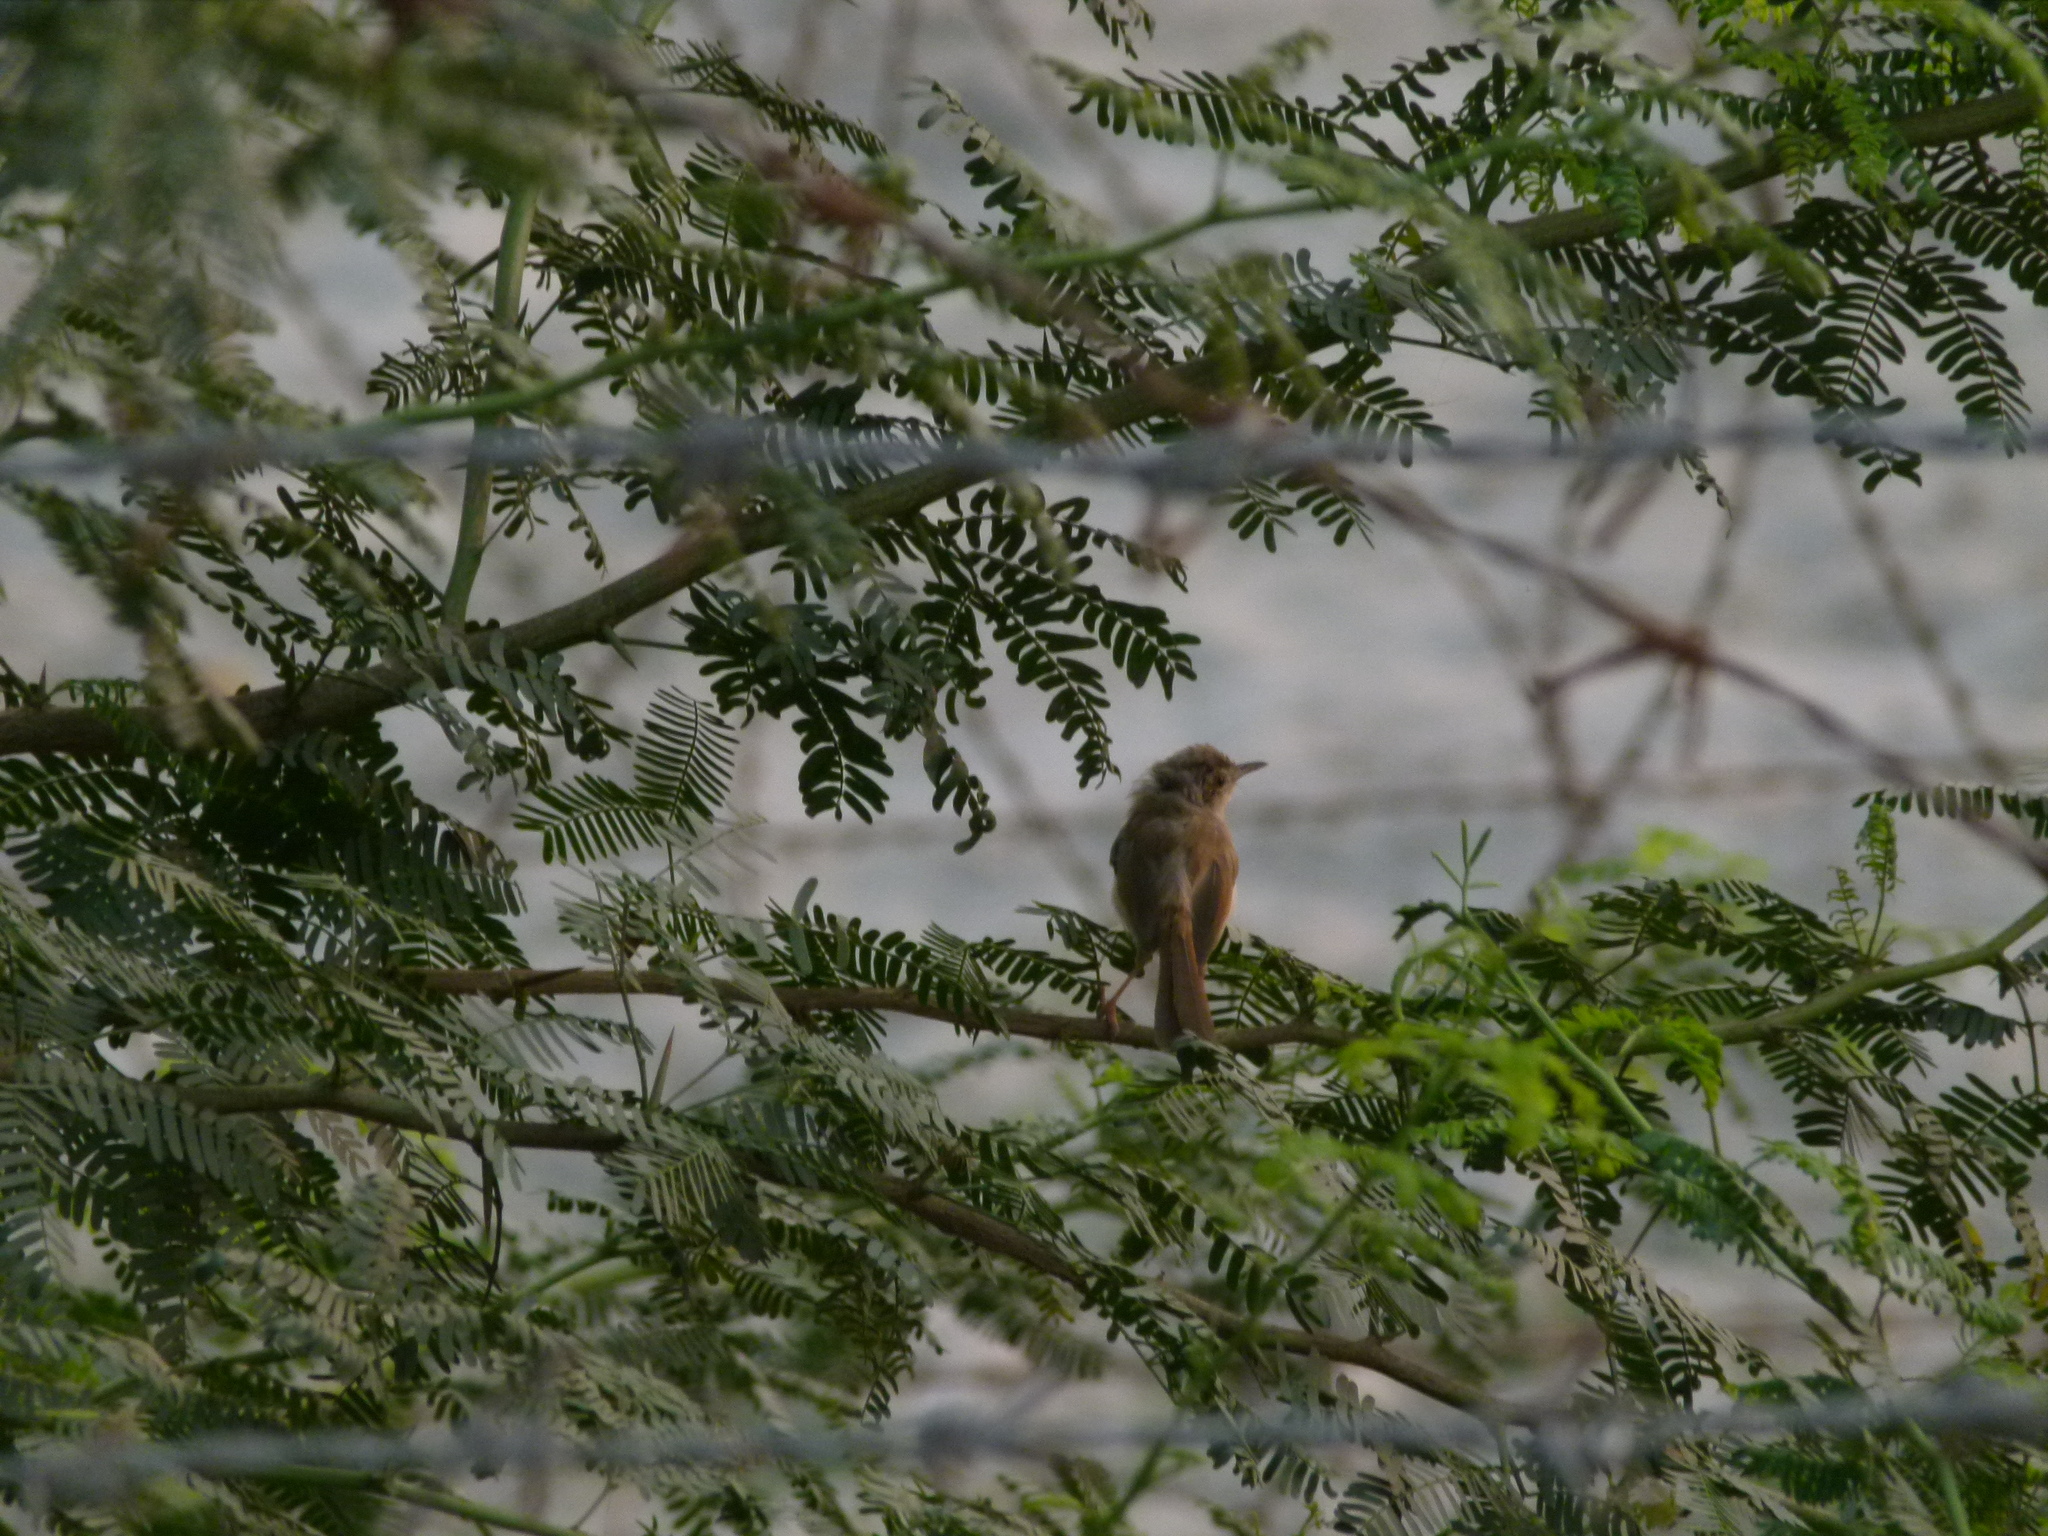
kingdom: Animalia
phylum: Chordata
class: Aves
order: Passeriformes
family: Cisticolidae
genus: Prinia
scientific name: Prinia inornata
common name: Plain prinia
